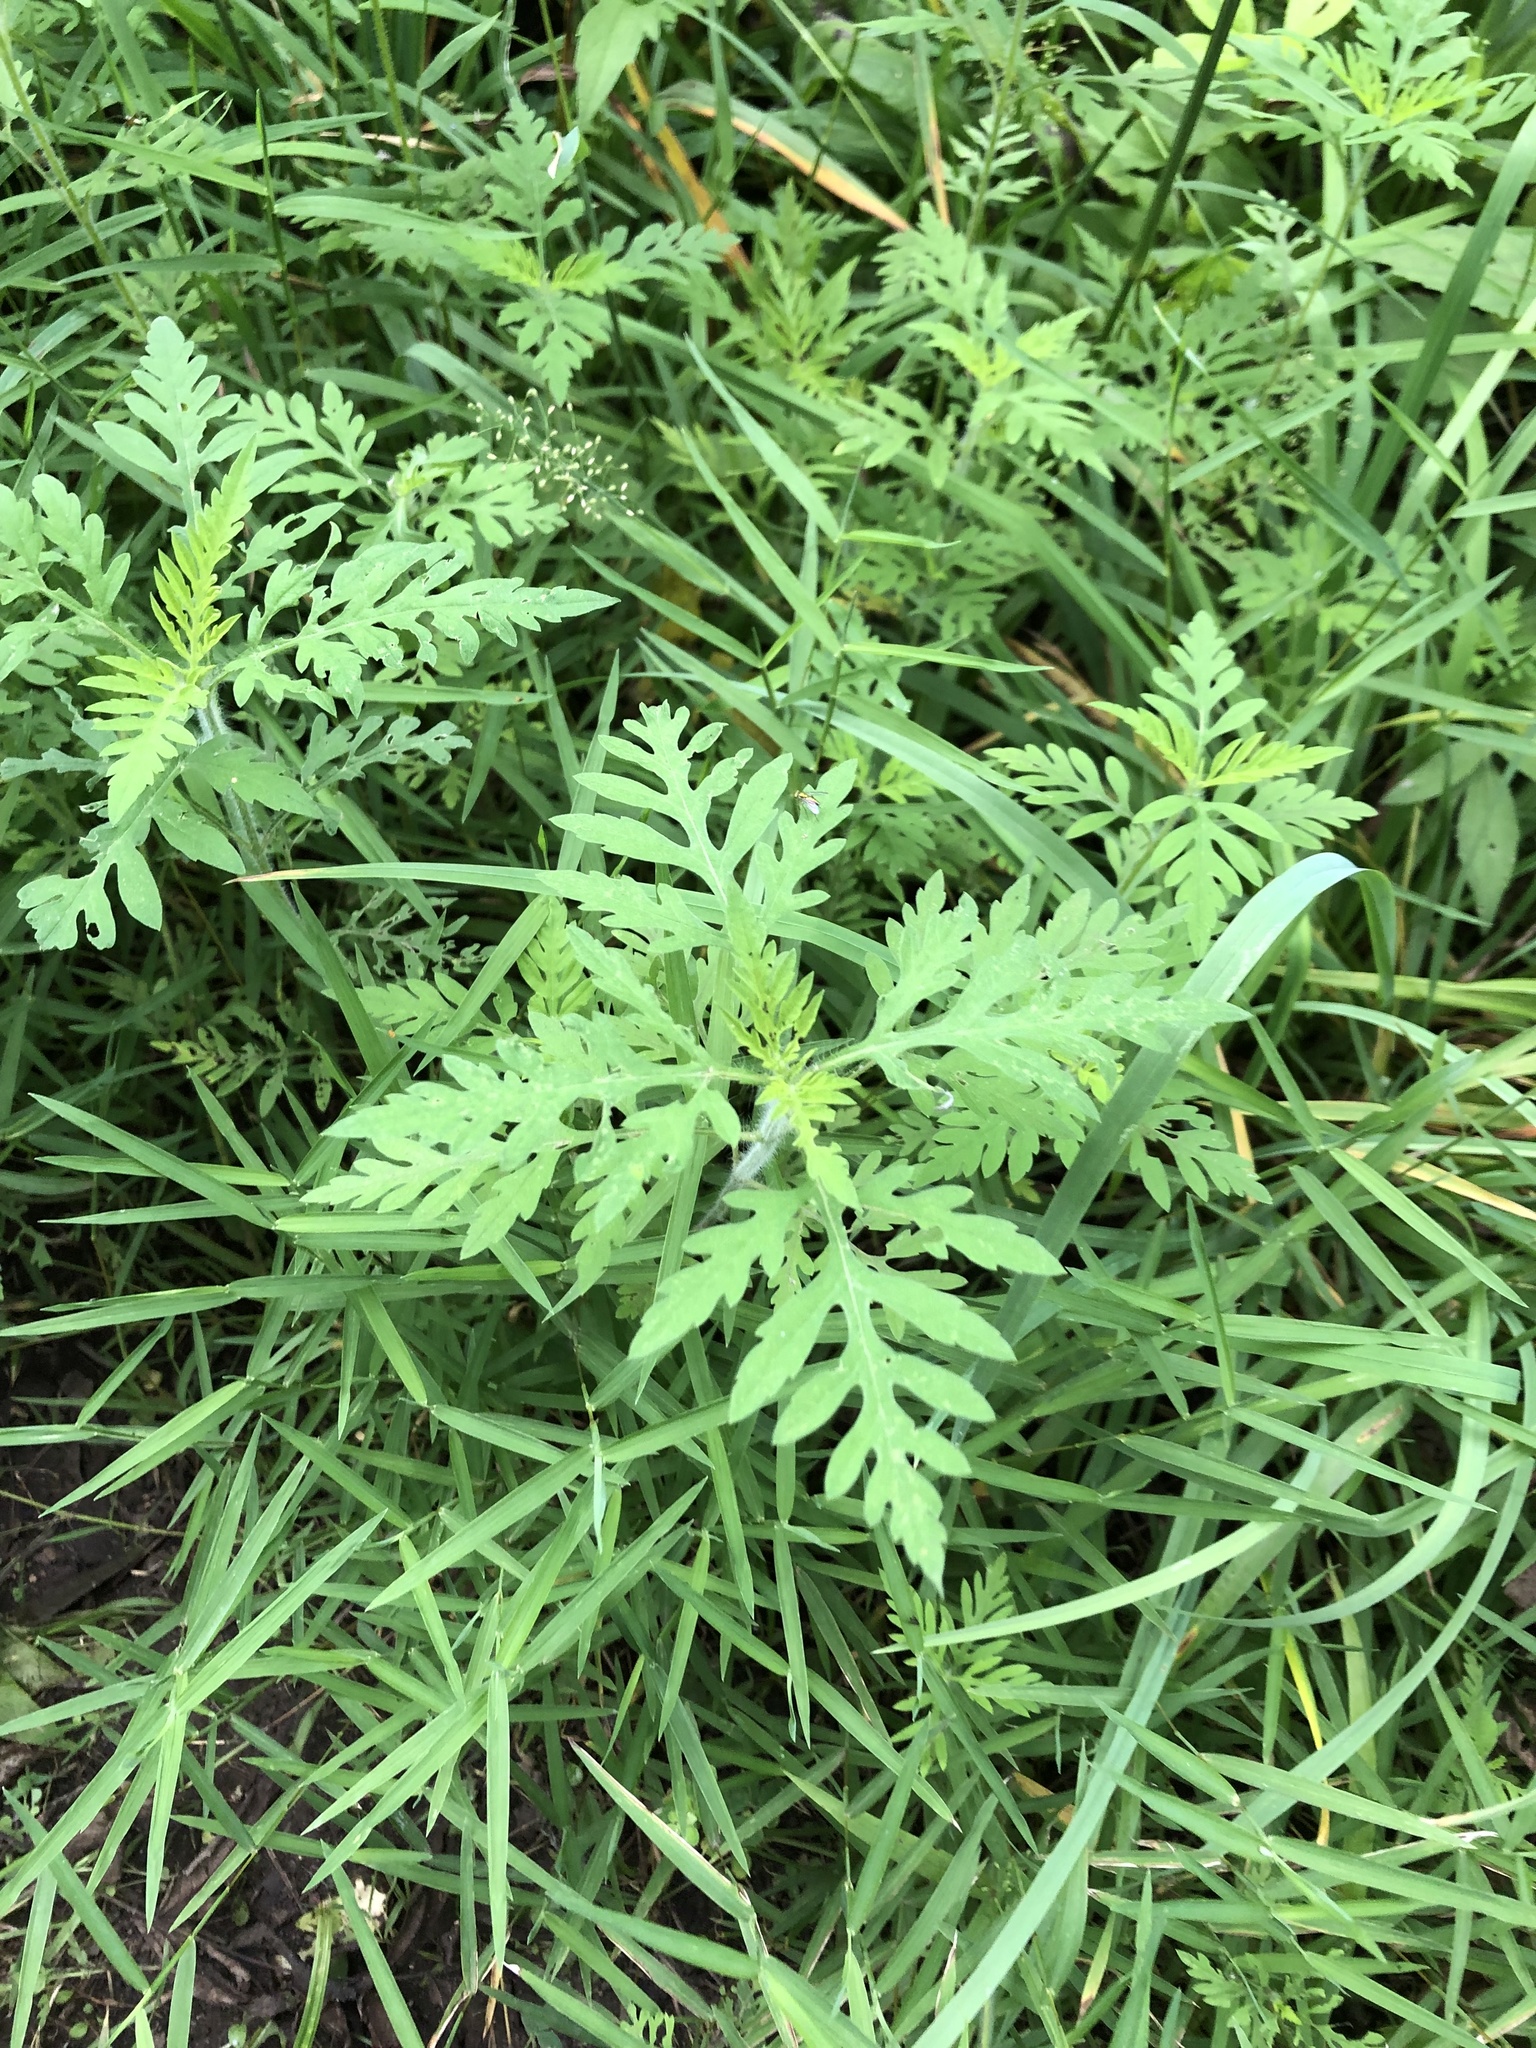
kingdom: Plantae
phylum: Tracheophyta
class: Magnoliopsida
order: Asterales
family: Asteraceae
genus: Ambrosia
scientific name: Ambrosia artemisiifolia
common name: Annual ragweed
